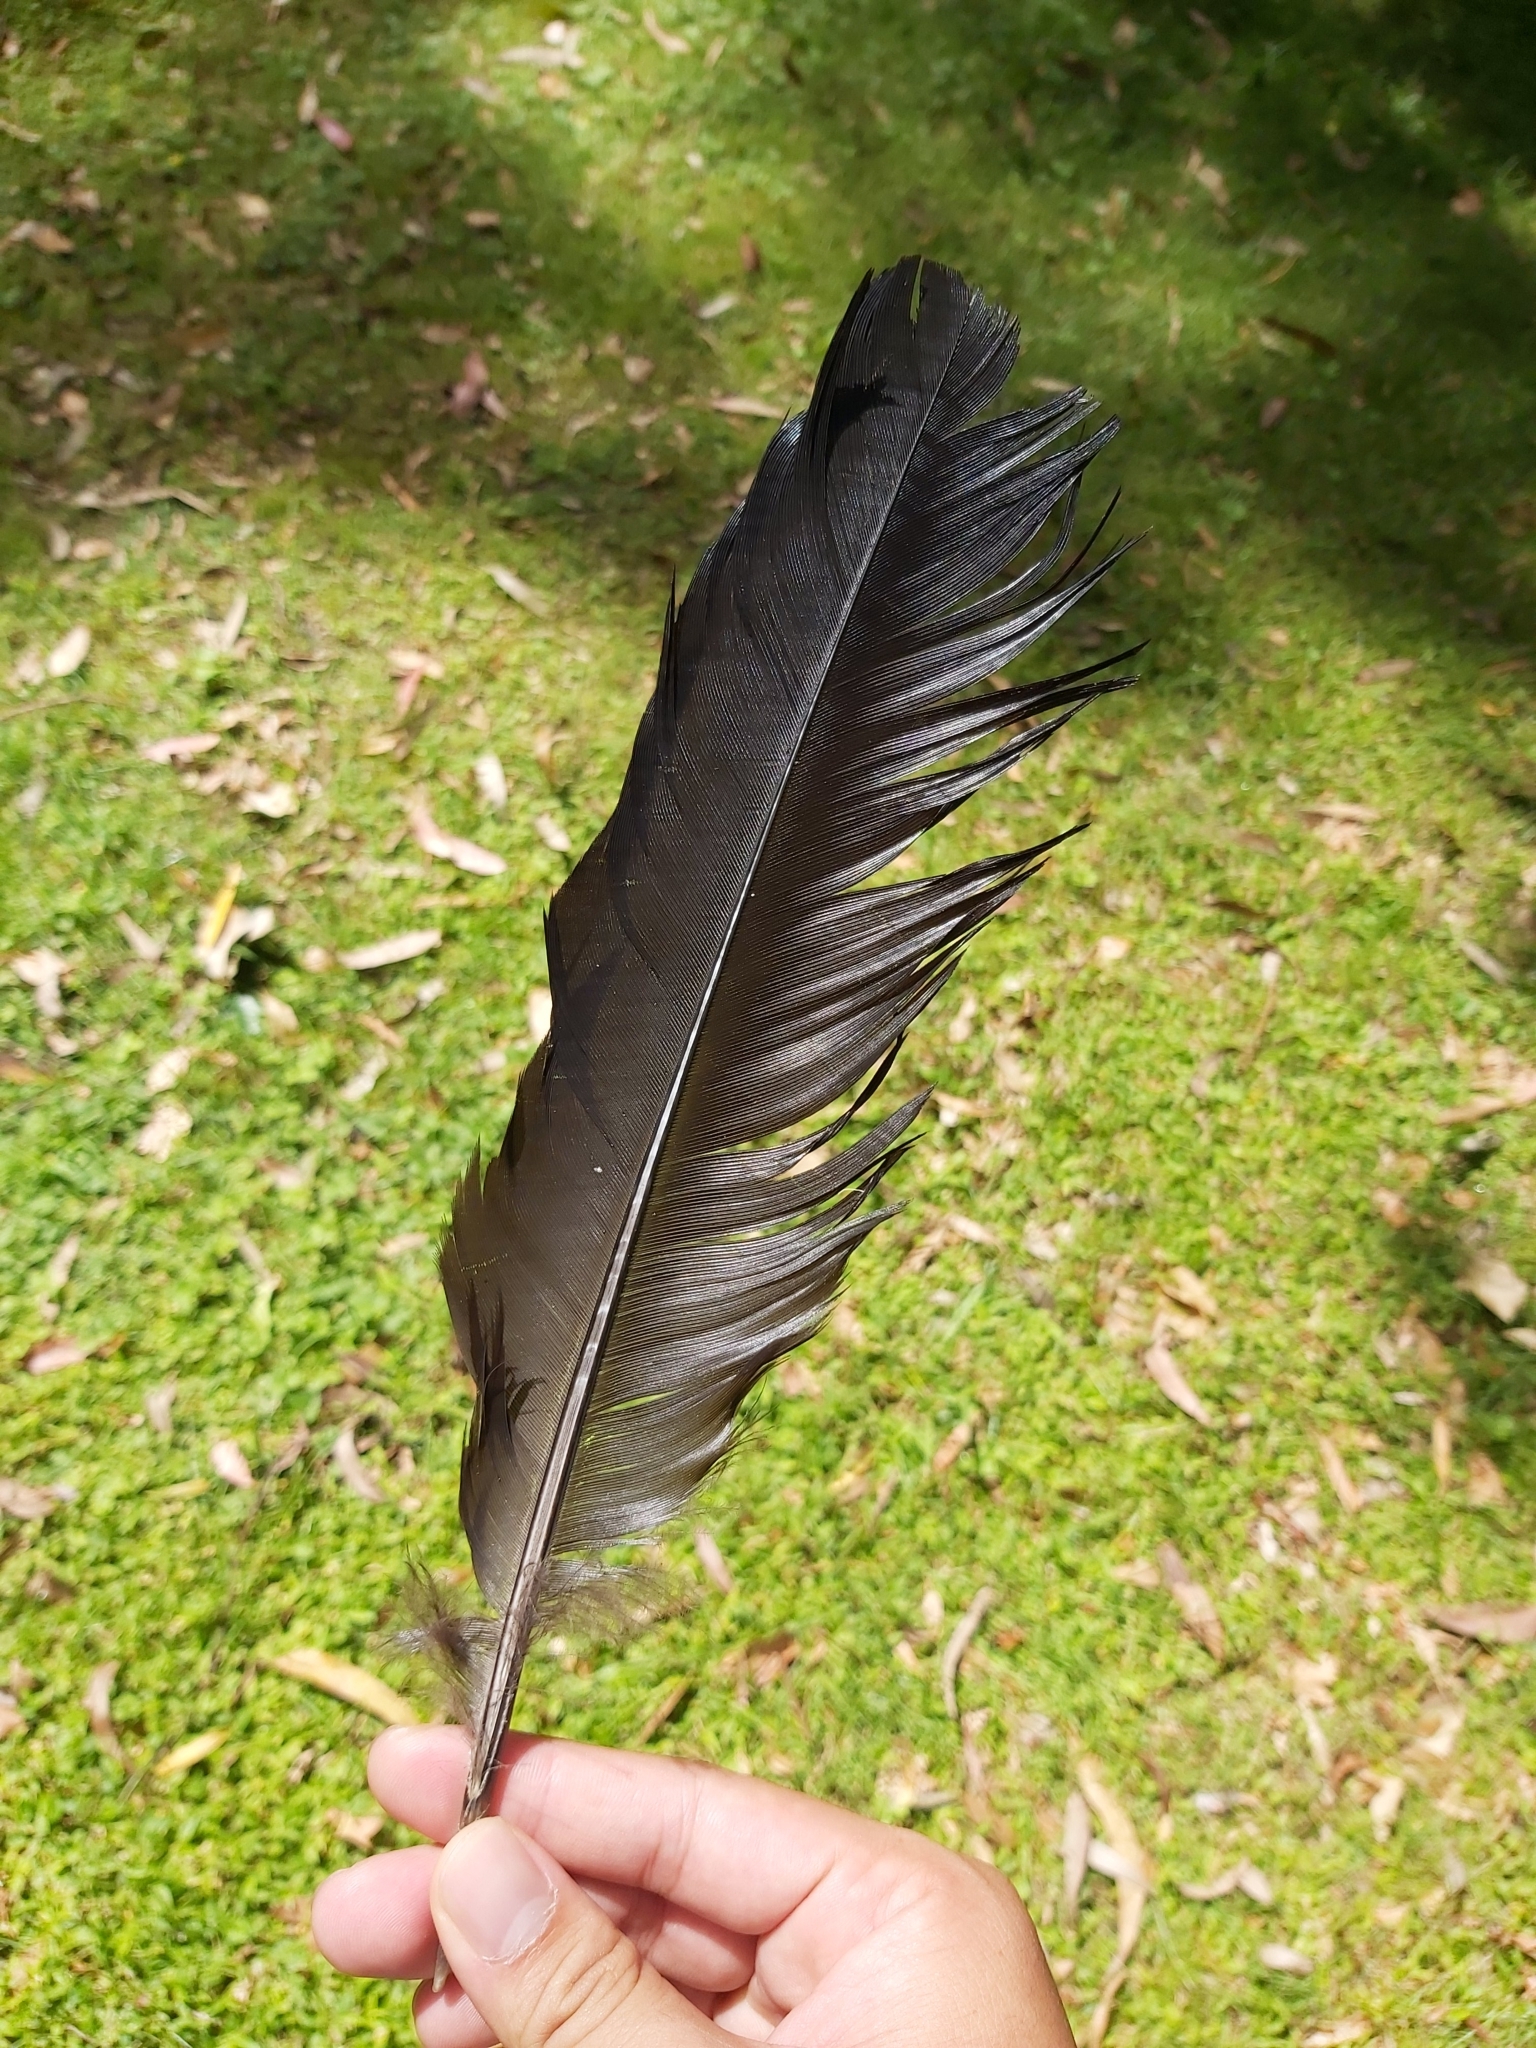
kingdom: Animalia
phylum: Chordata
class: Aves
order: Galliformes
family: Megapodiidae
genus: Alectura
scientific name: Alectura lathami
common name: Australian brushturkey
